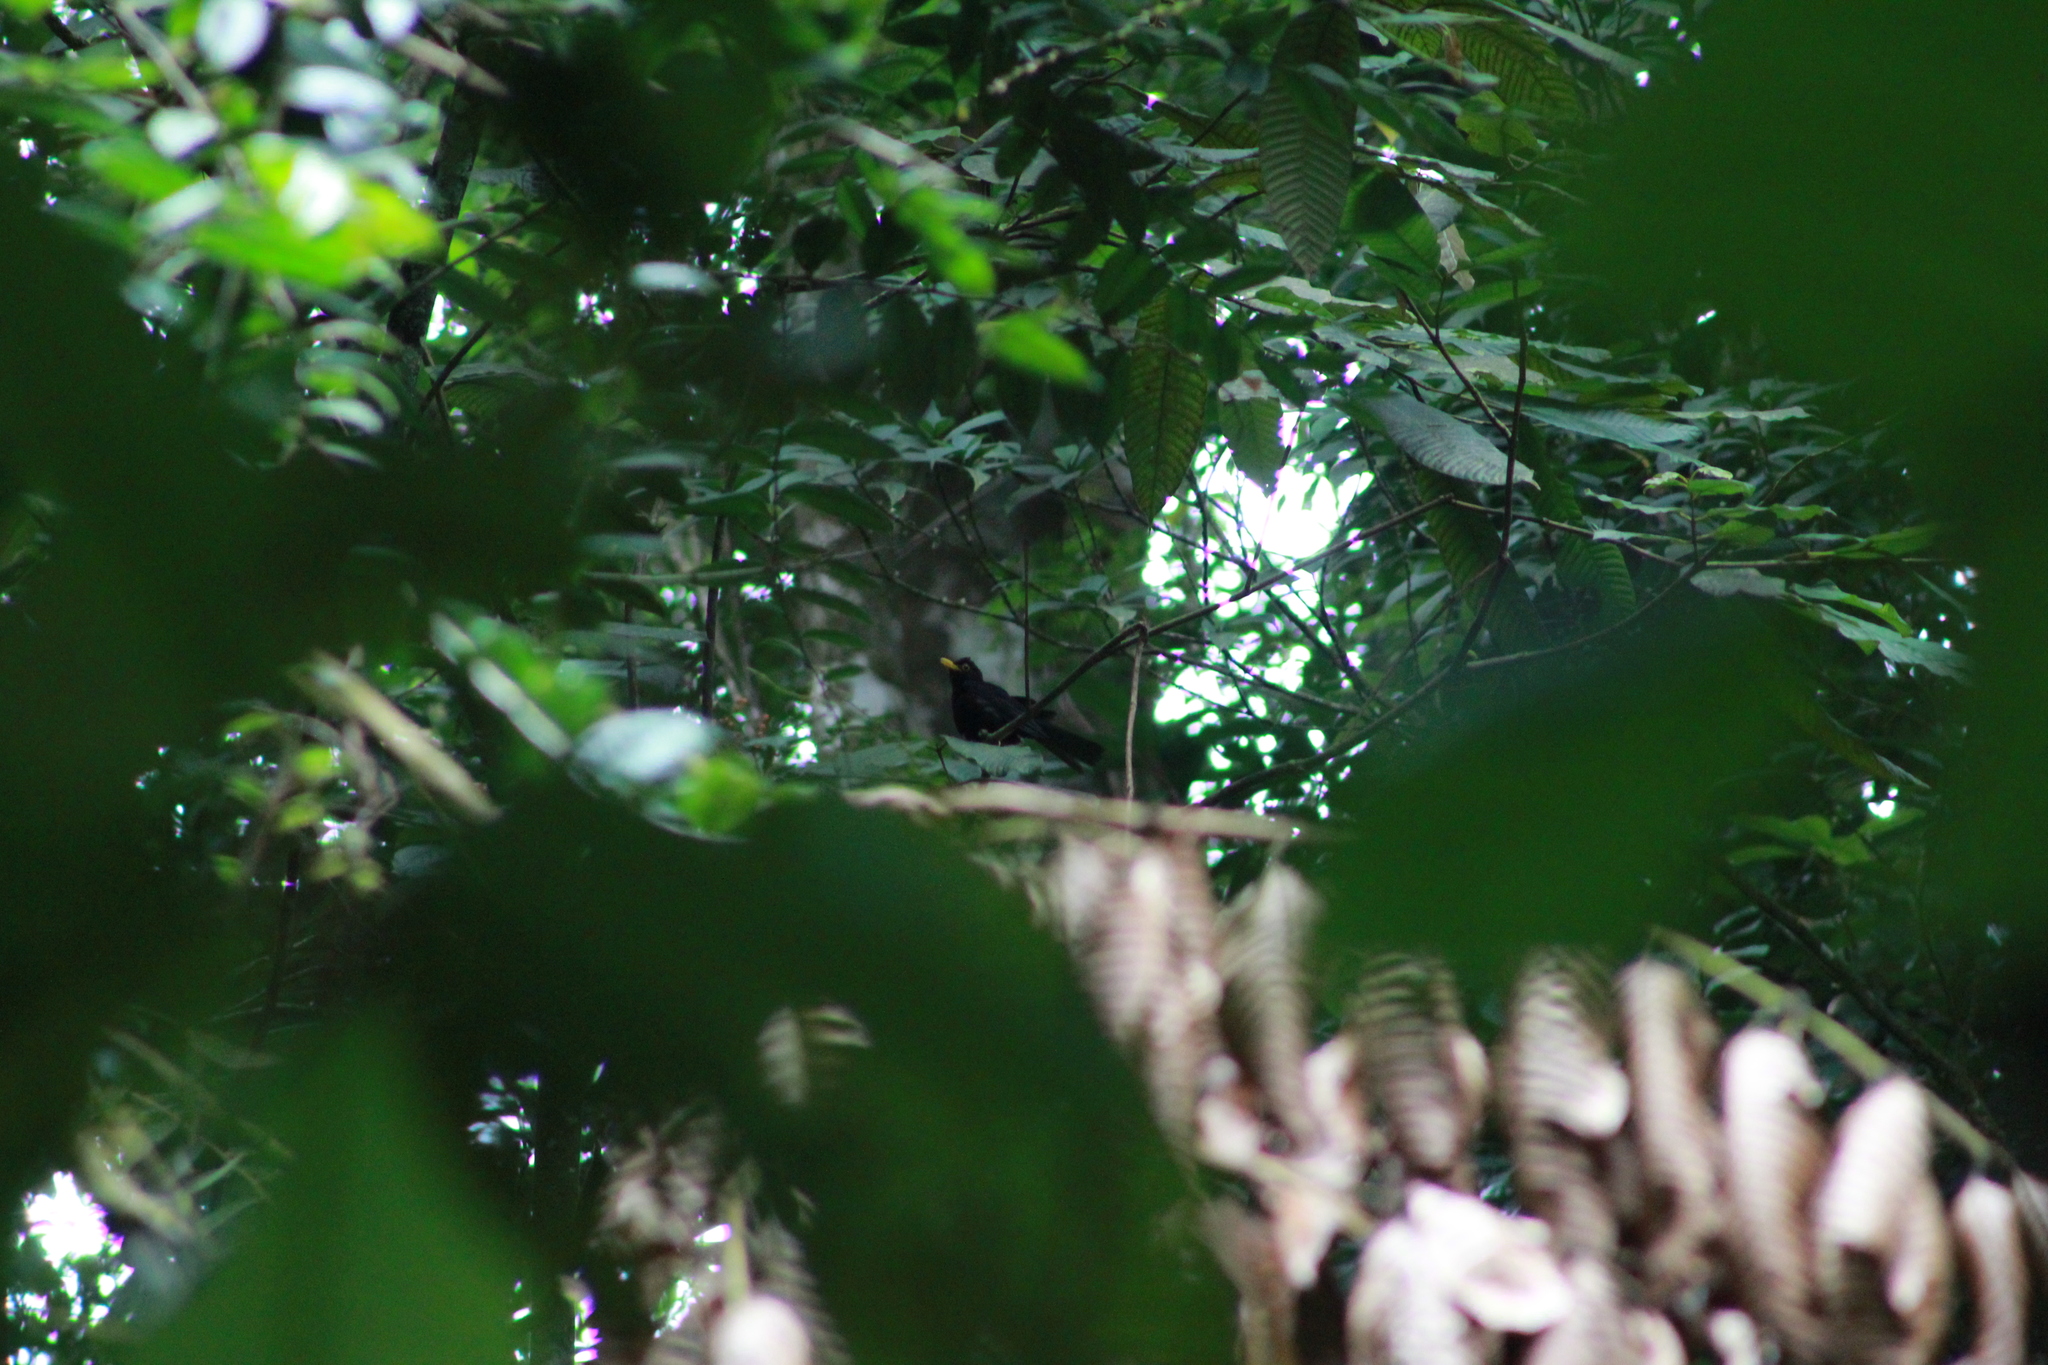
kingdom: Animalia
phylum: Chordata
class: Aves
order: Passeriformes
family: Turdidae
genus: Turdus
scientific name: Turdus flavipes
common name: Yellow-legged thrush
